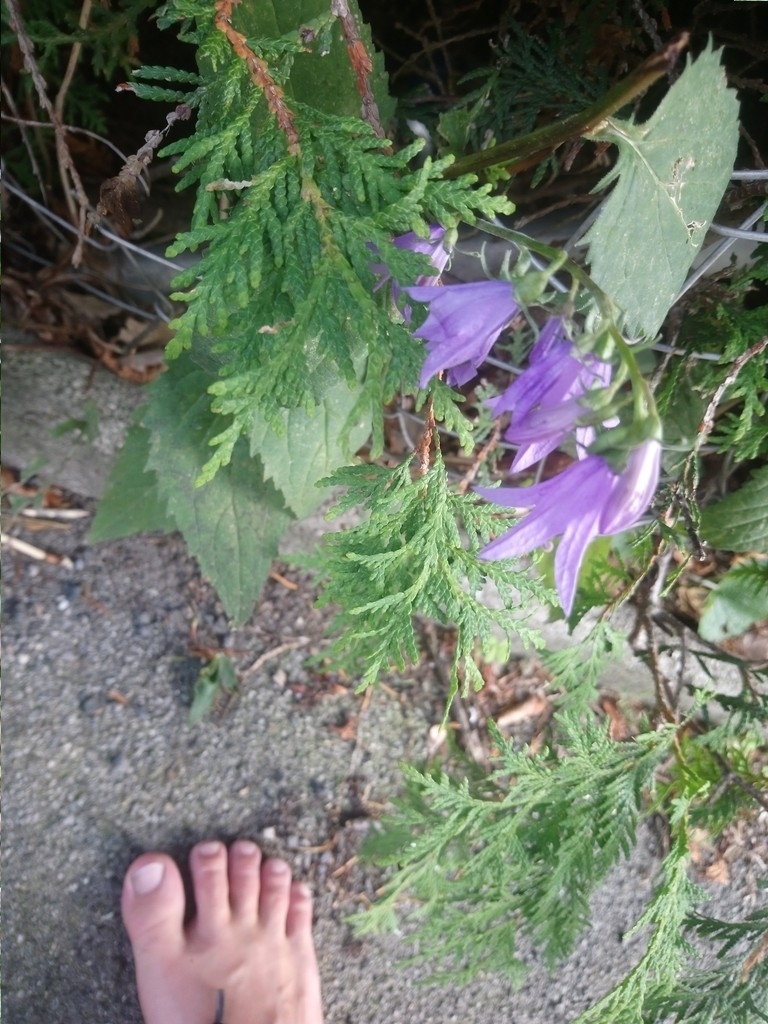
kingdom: Plantae
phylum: Tracheophyta
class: Magnoliopsida
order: Asterales
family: Campanulaceae
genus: Campanula
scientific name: Campanula rapunculoides
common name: Creeping bellflower
